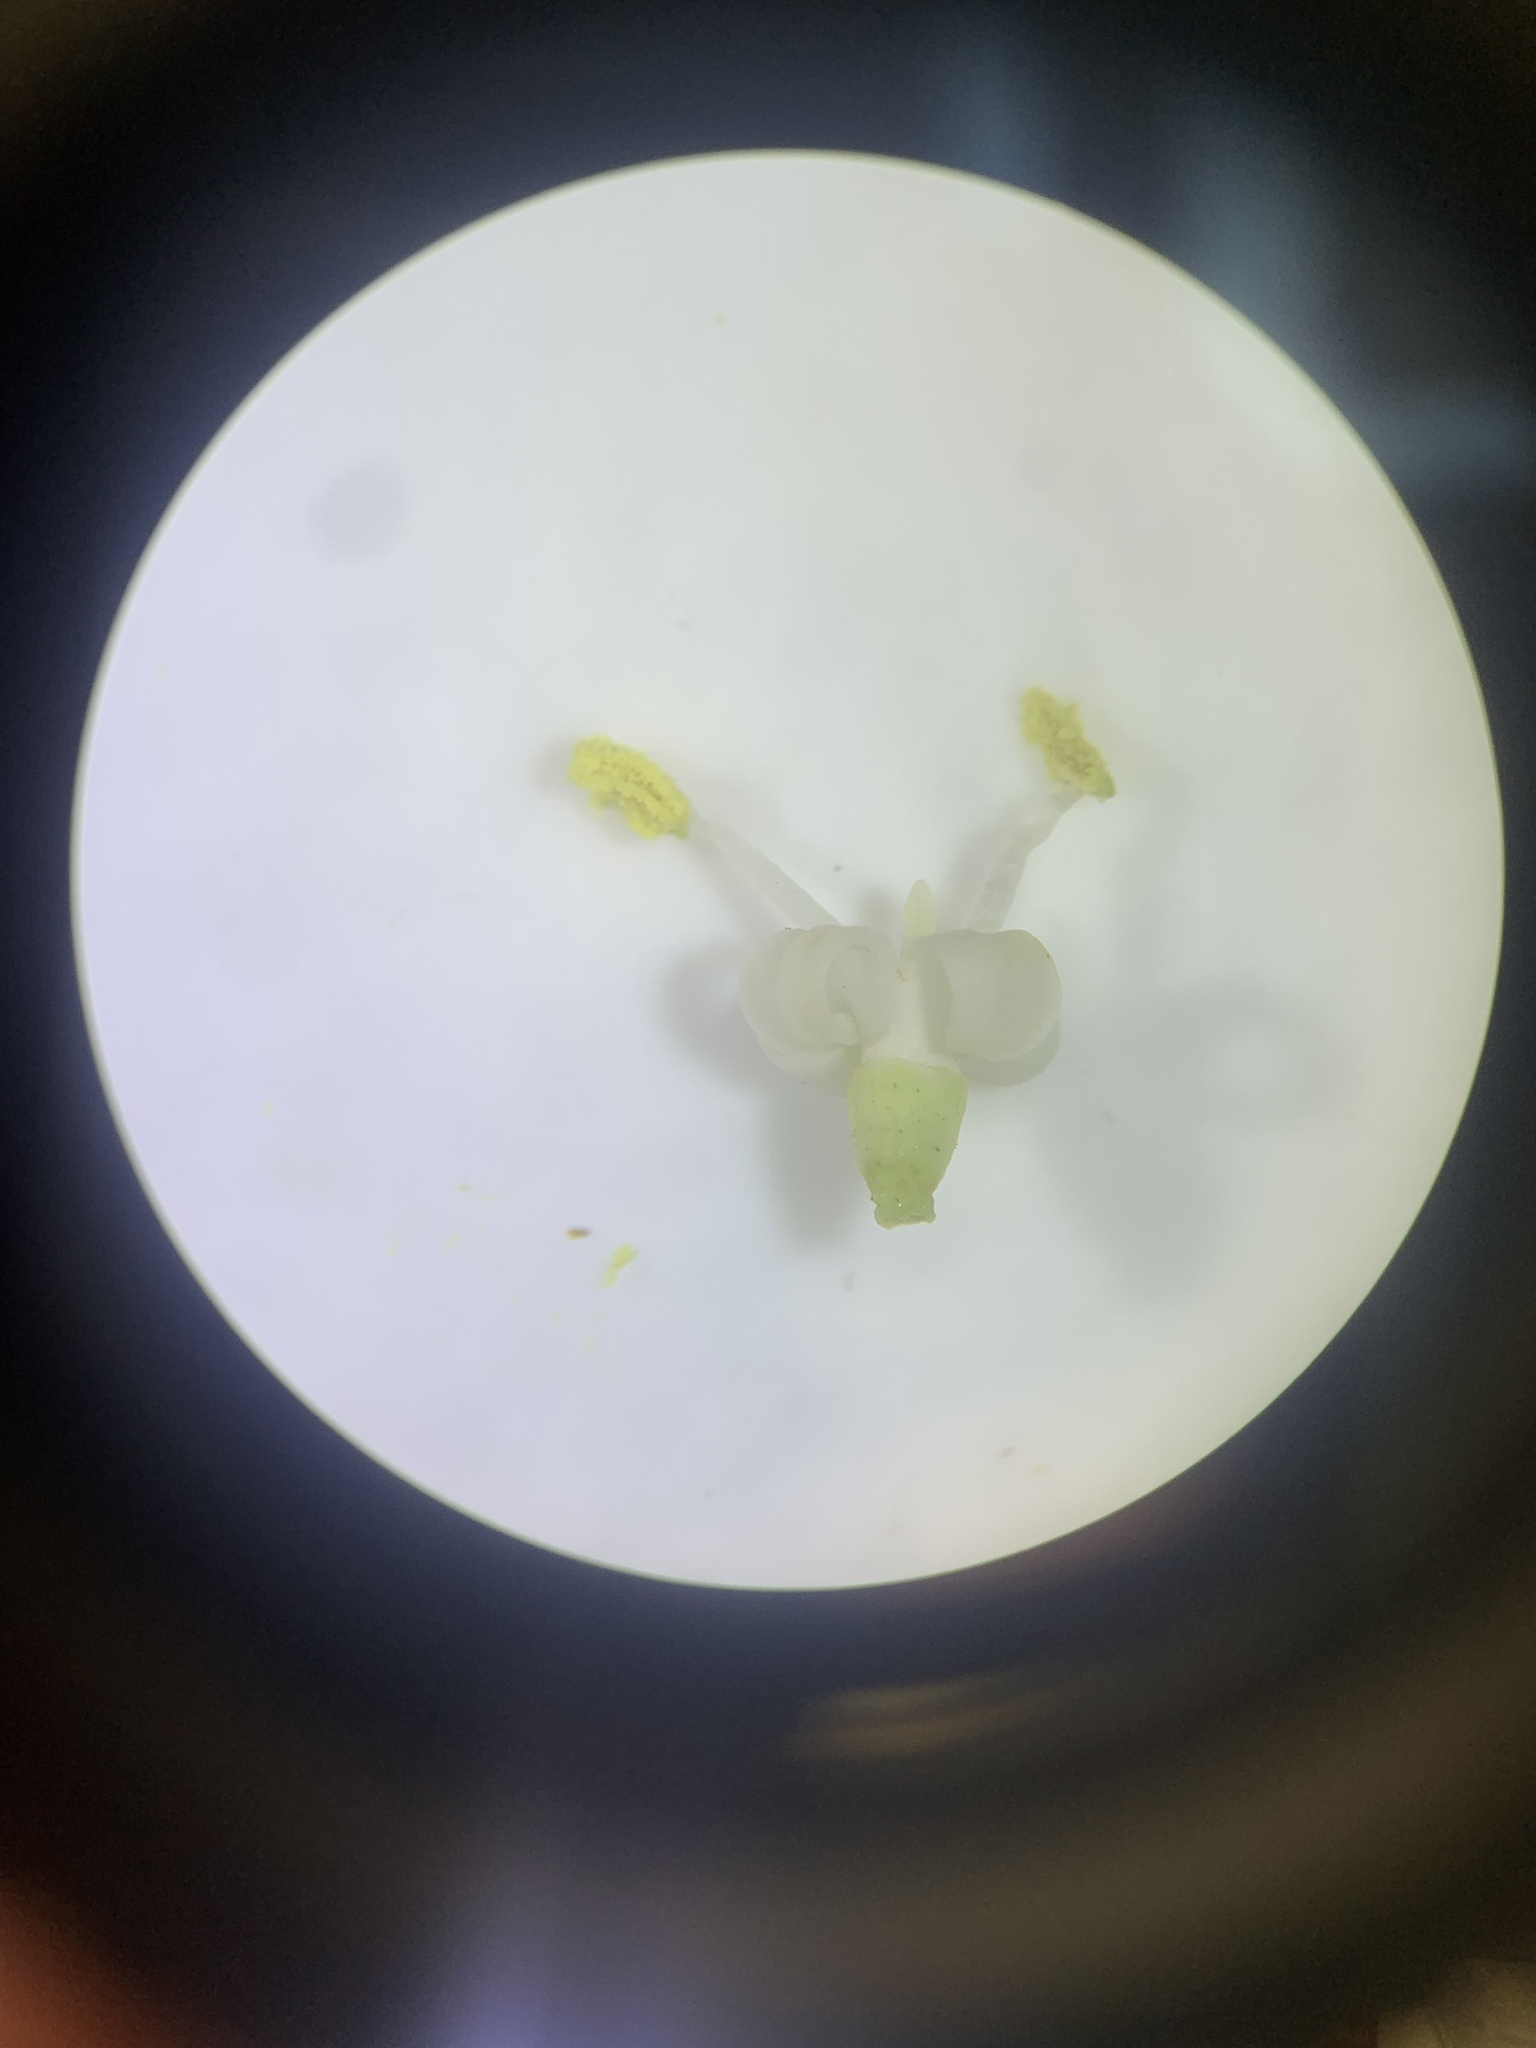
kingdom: Plantae
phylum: Tracheophyta
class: Magnoliopsida
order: Lamiales
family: Oleaceae
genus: Ligustrum
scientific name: Ligustrum lucidum
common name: Glossy privet
